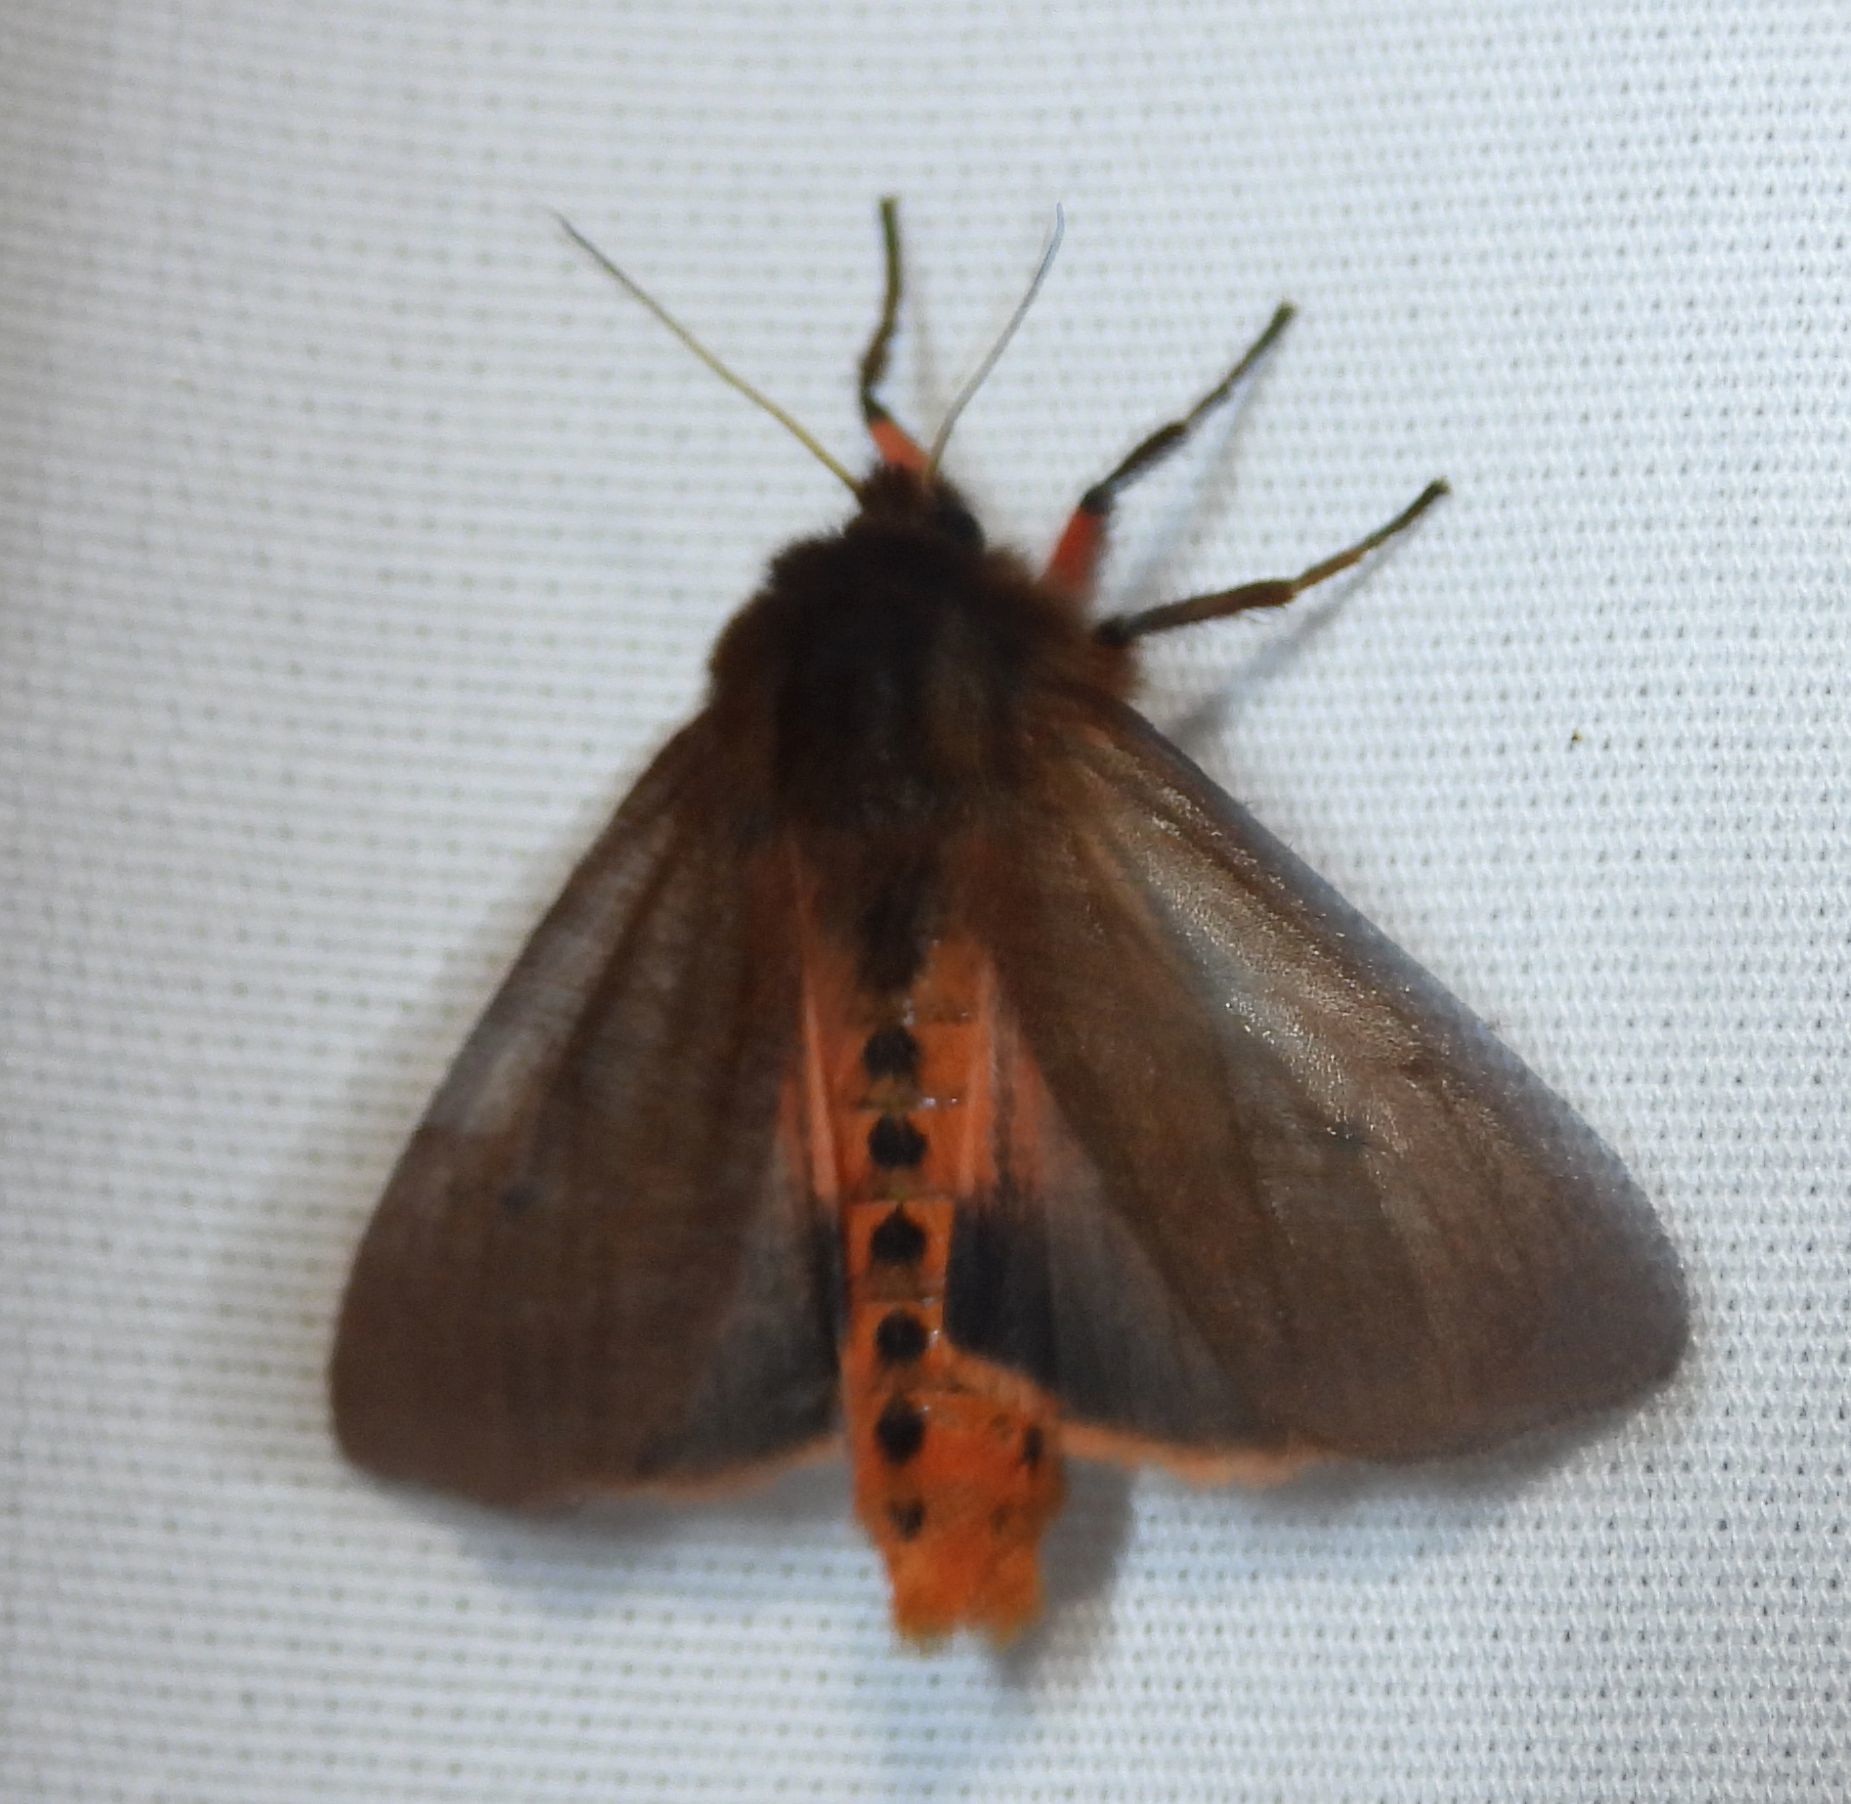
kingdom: Animalia
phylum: Arthropoda
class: Insecta
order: Lepidoptera
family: Erebidae
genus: Phragmatobia
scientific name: Phragmatobia fuliginosa
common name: Ruby tiger
